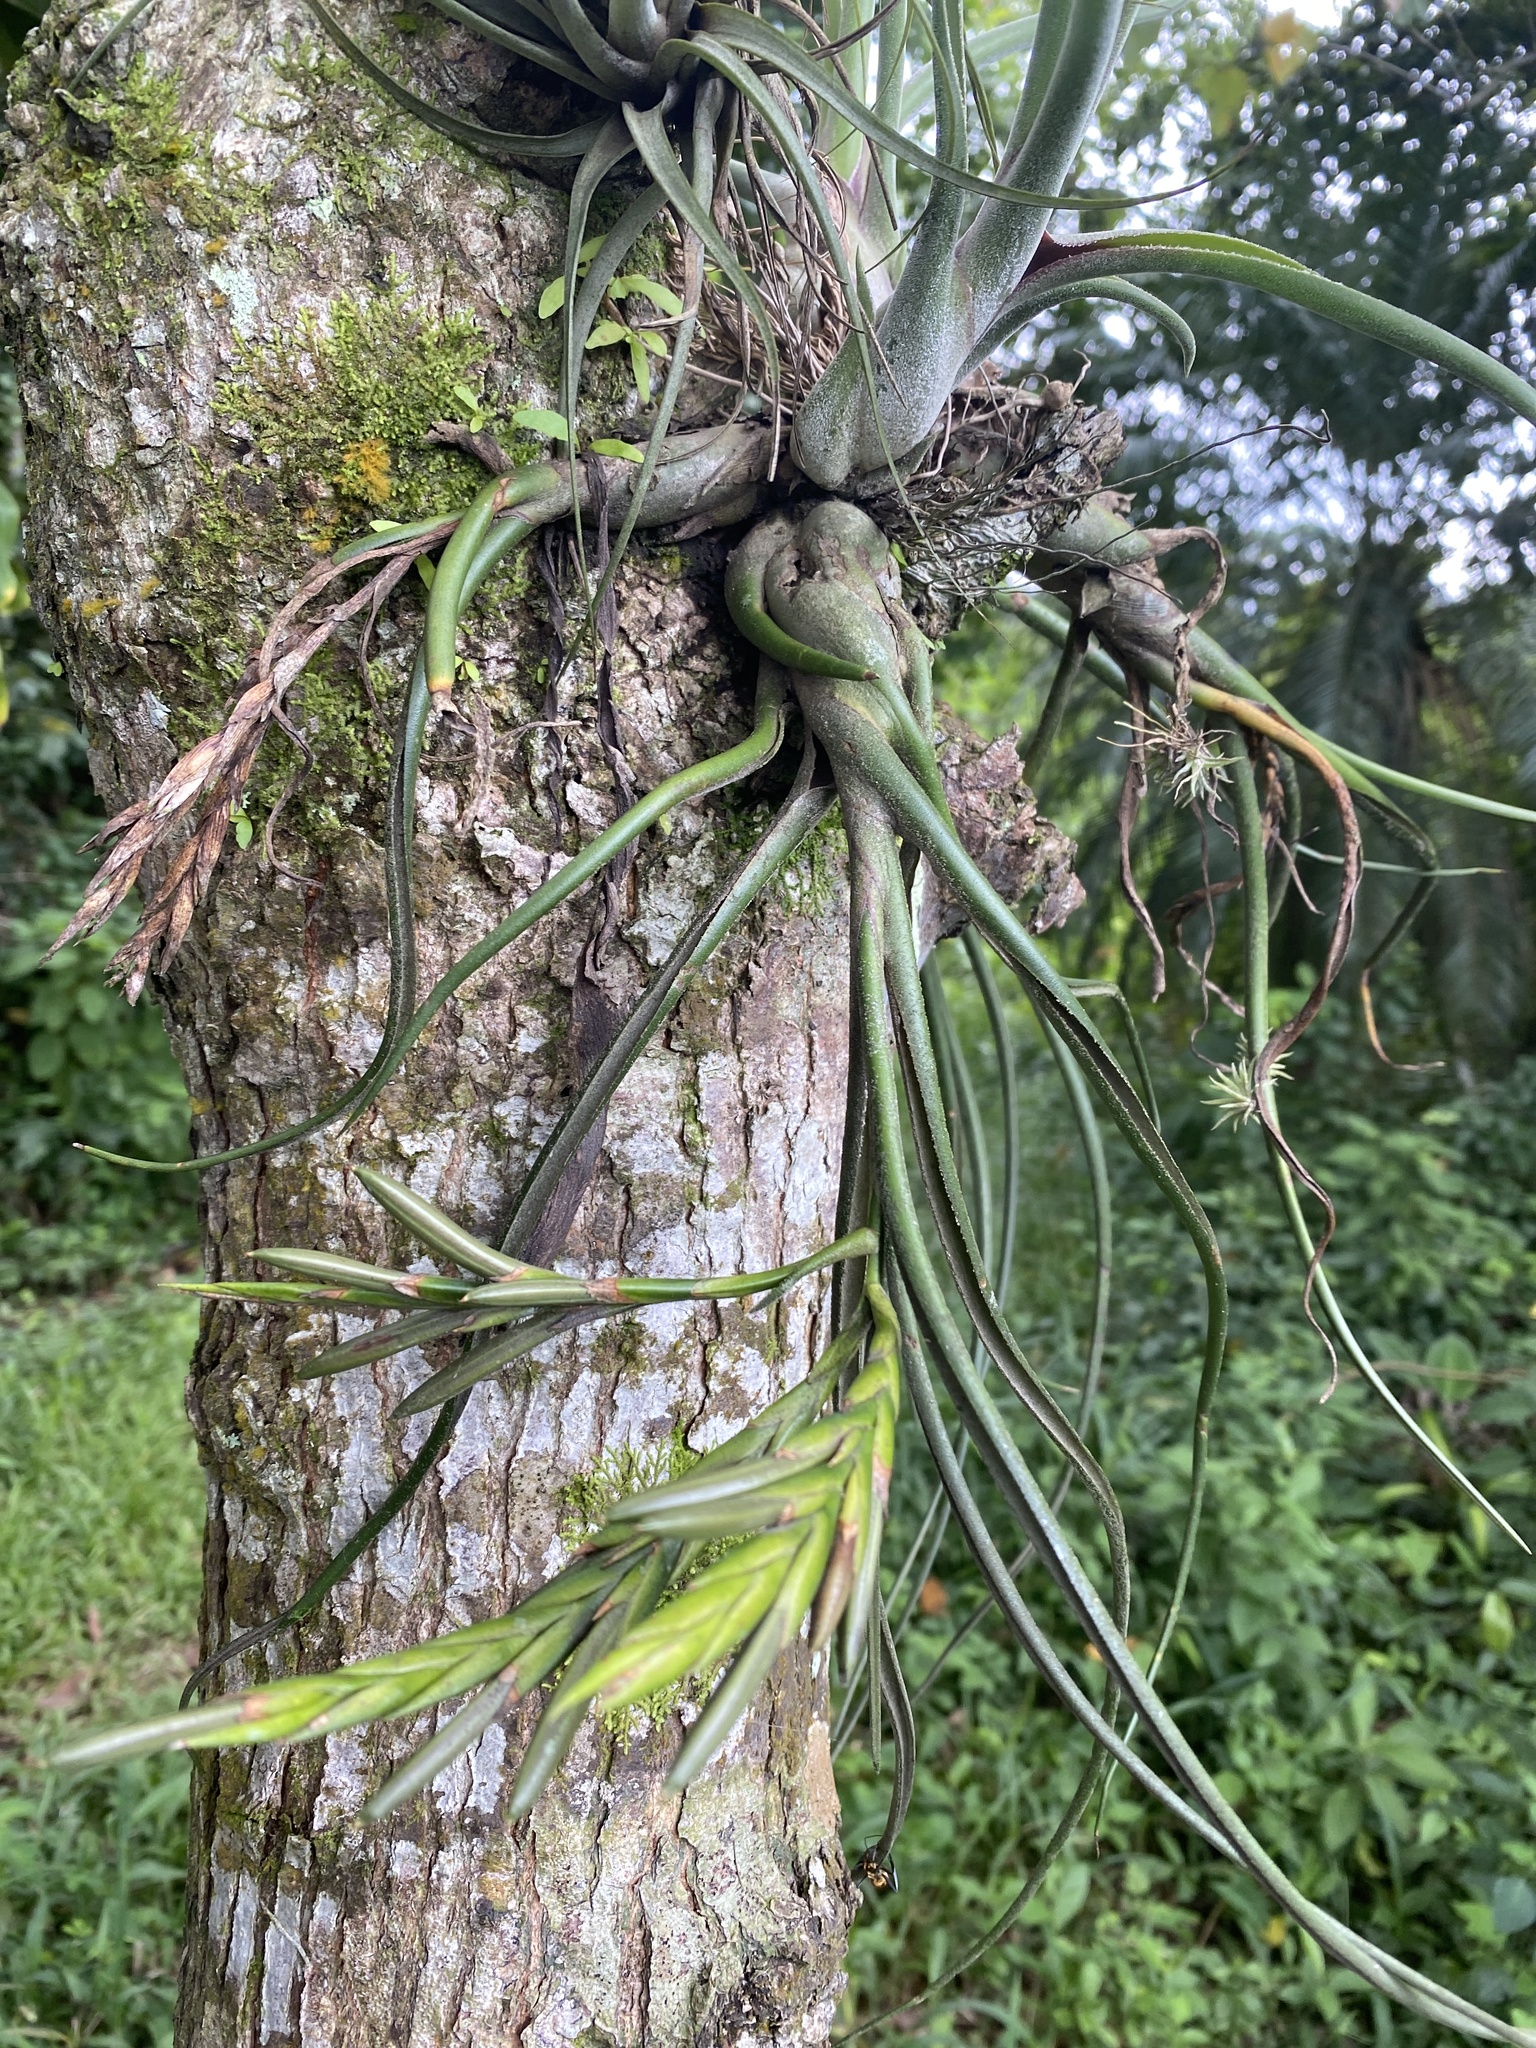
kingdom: Plantae
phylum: Tracheophyta
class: Liliopsida
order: Poales
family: Bromeliaceae
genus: Tillandsia
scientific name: Tillandsia caput-medusae
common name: Octopus plant
